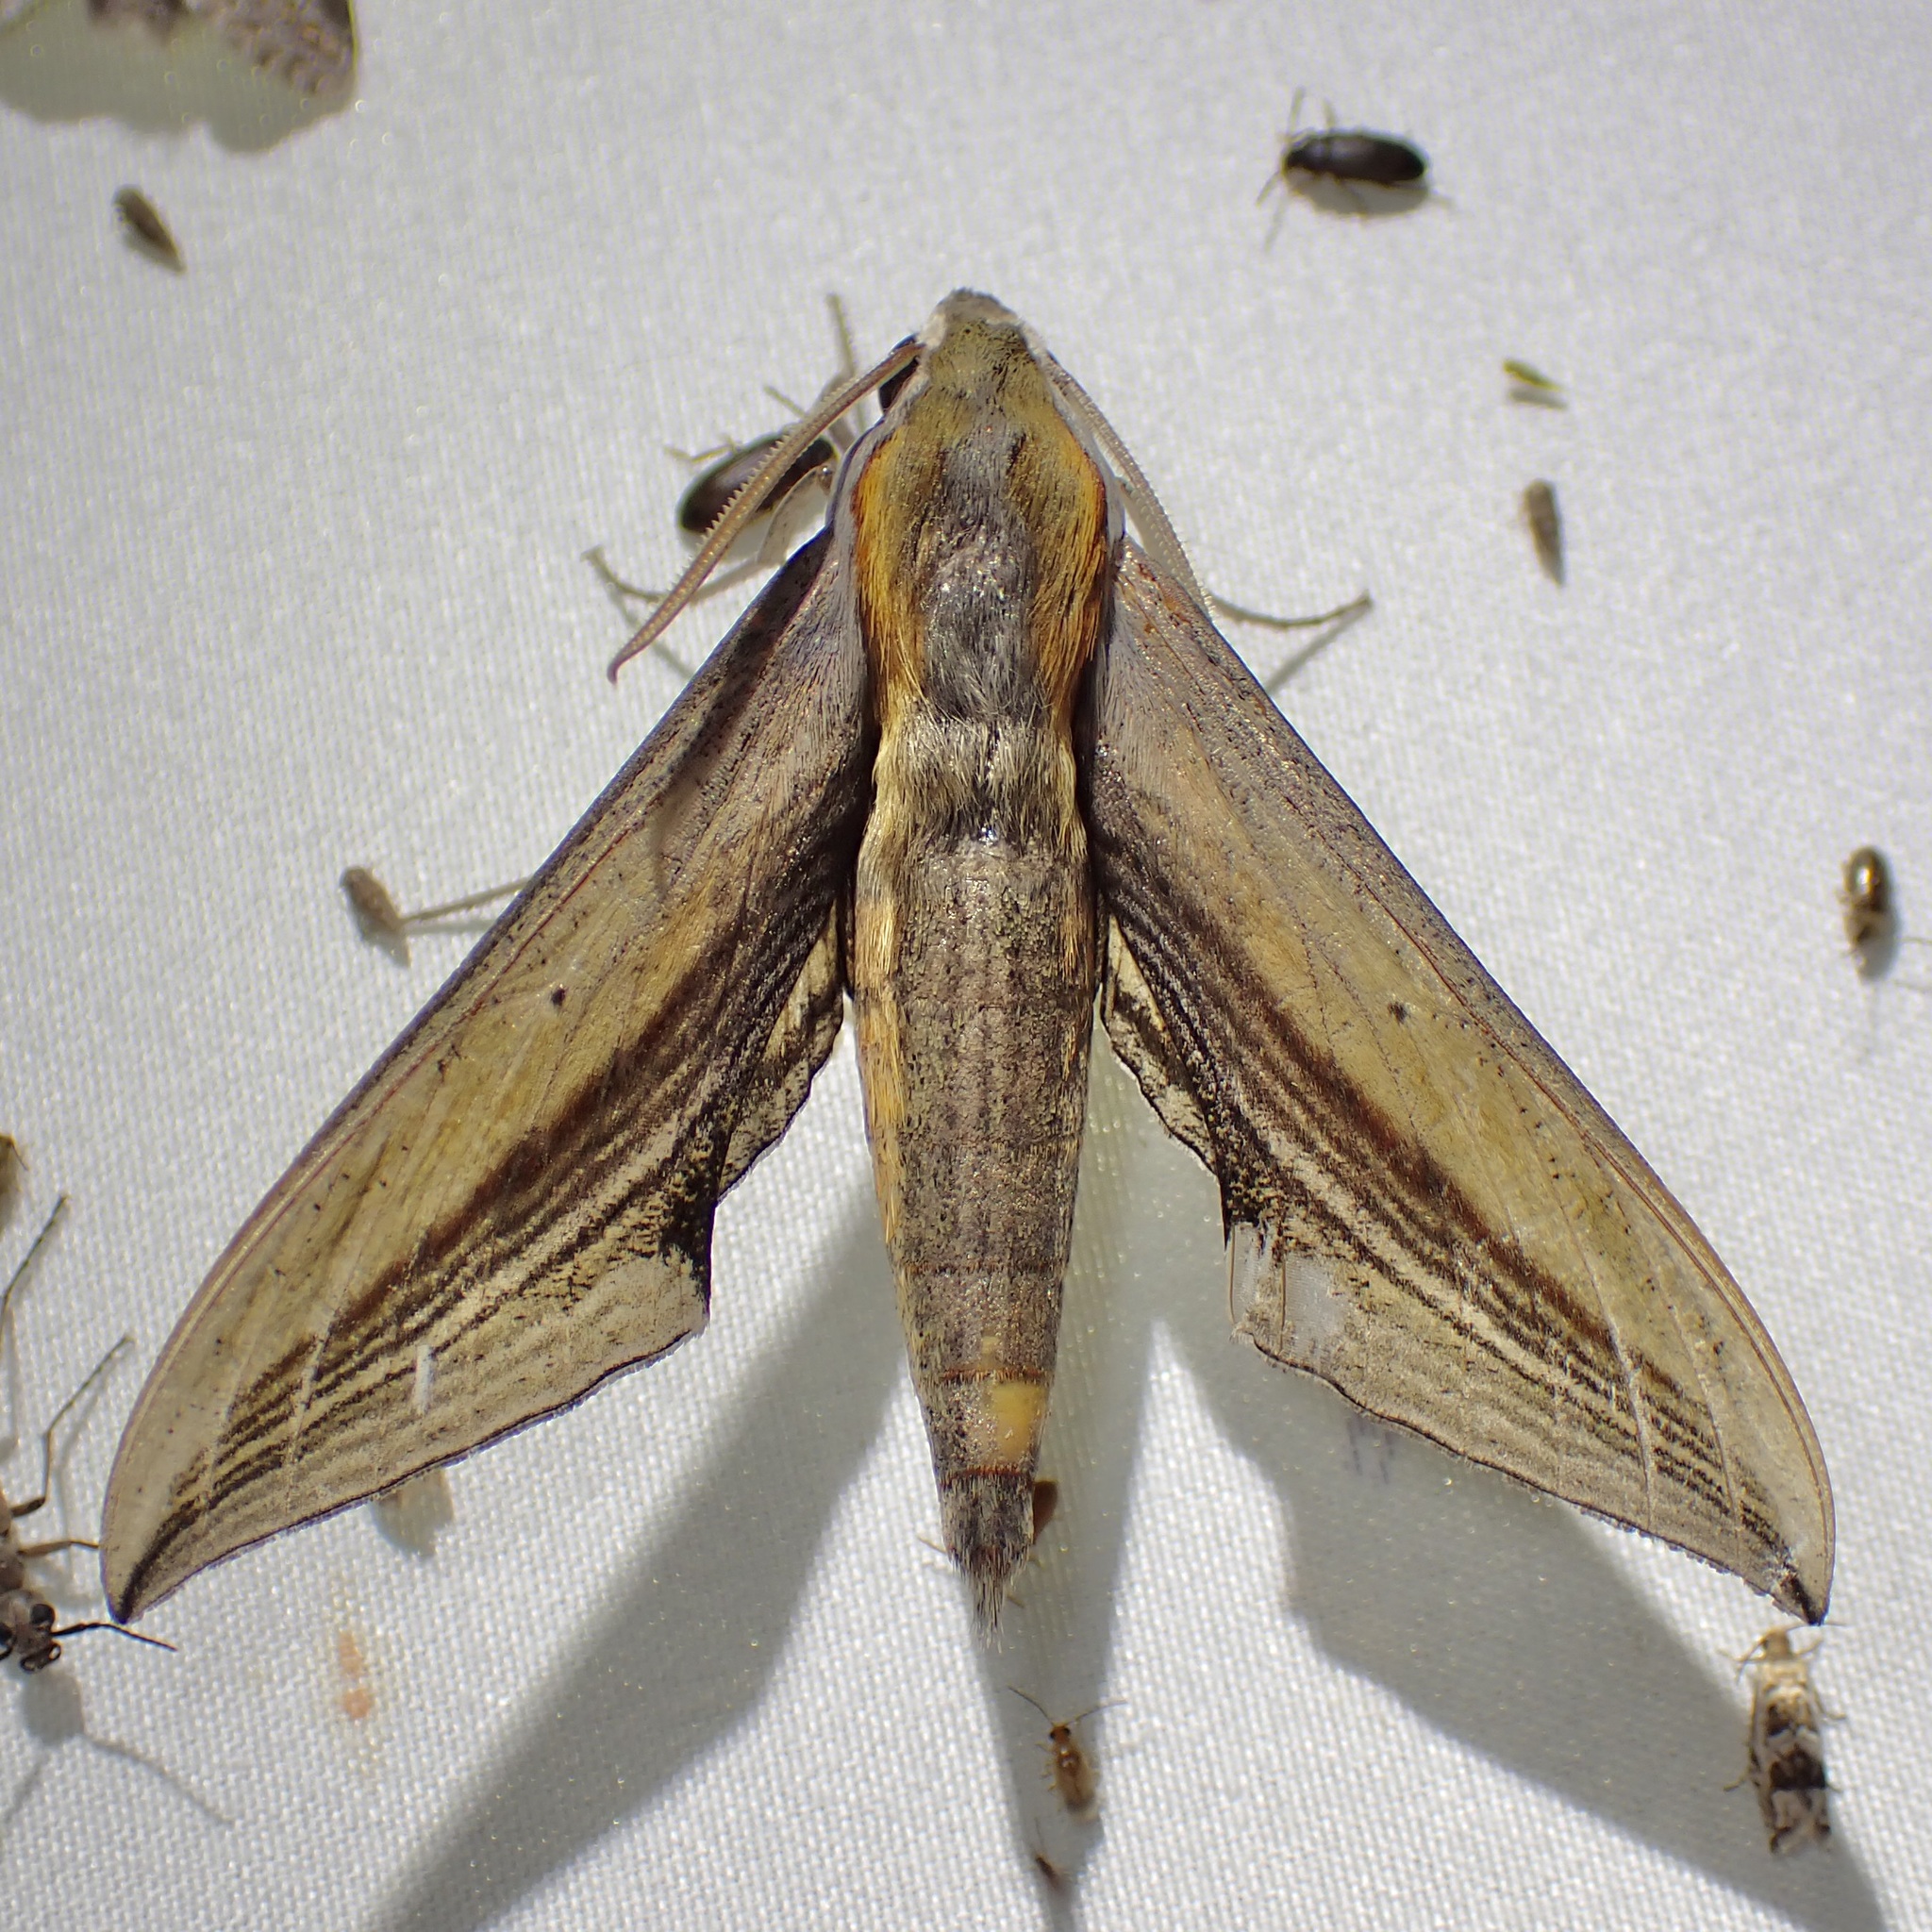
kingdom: Animalia
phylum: Arthropoda
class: Insecta
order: Lepidoptera
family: Sphingidae
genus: Xylophanes
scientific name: Xylophanes falco
